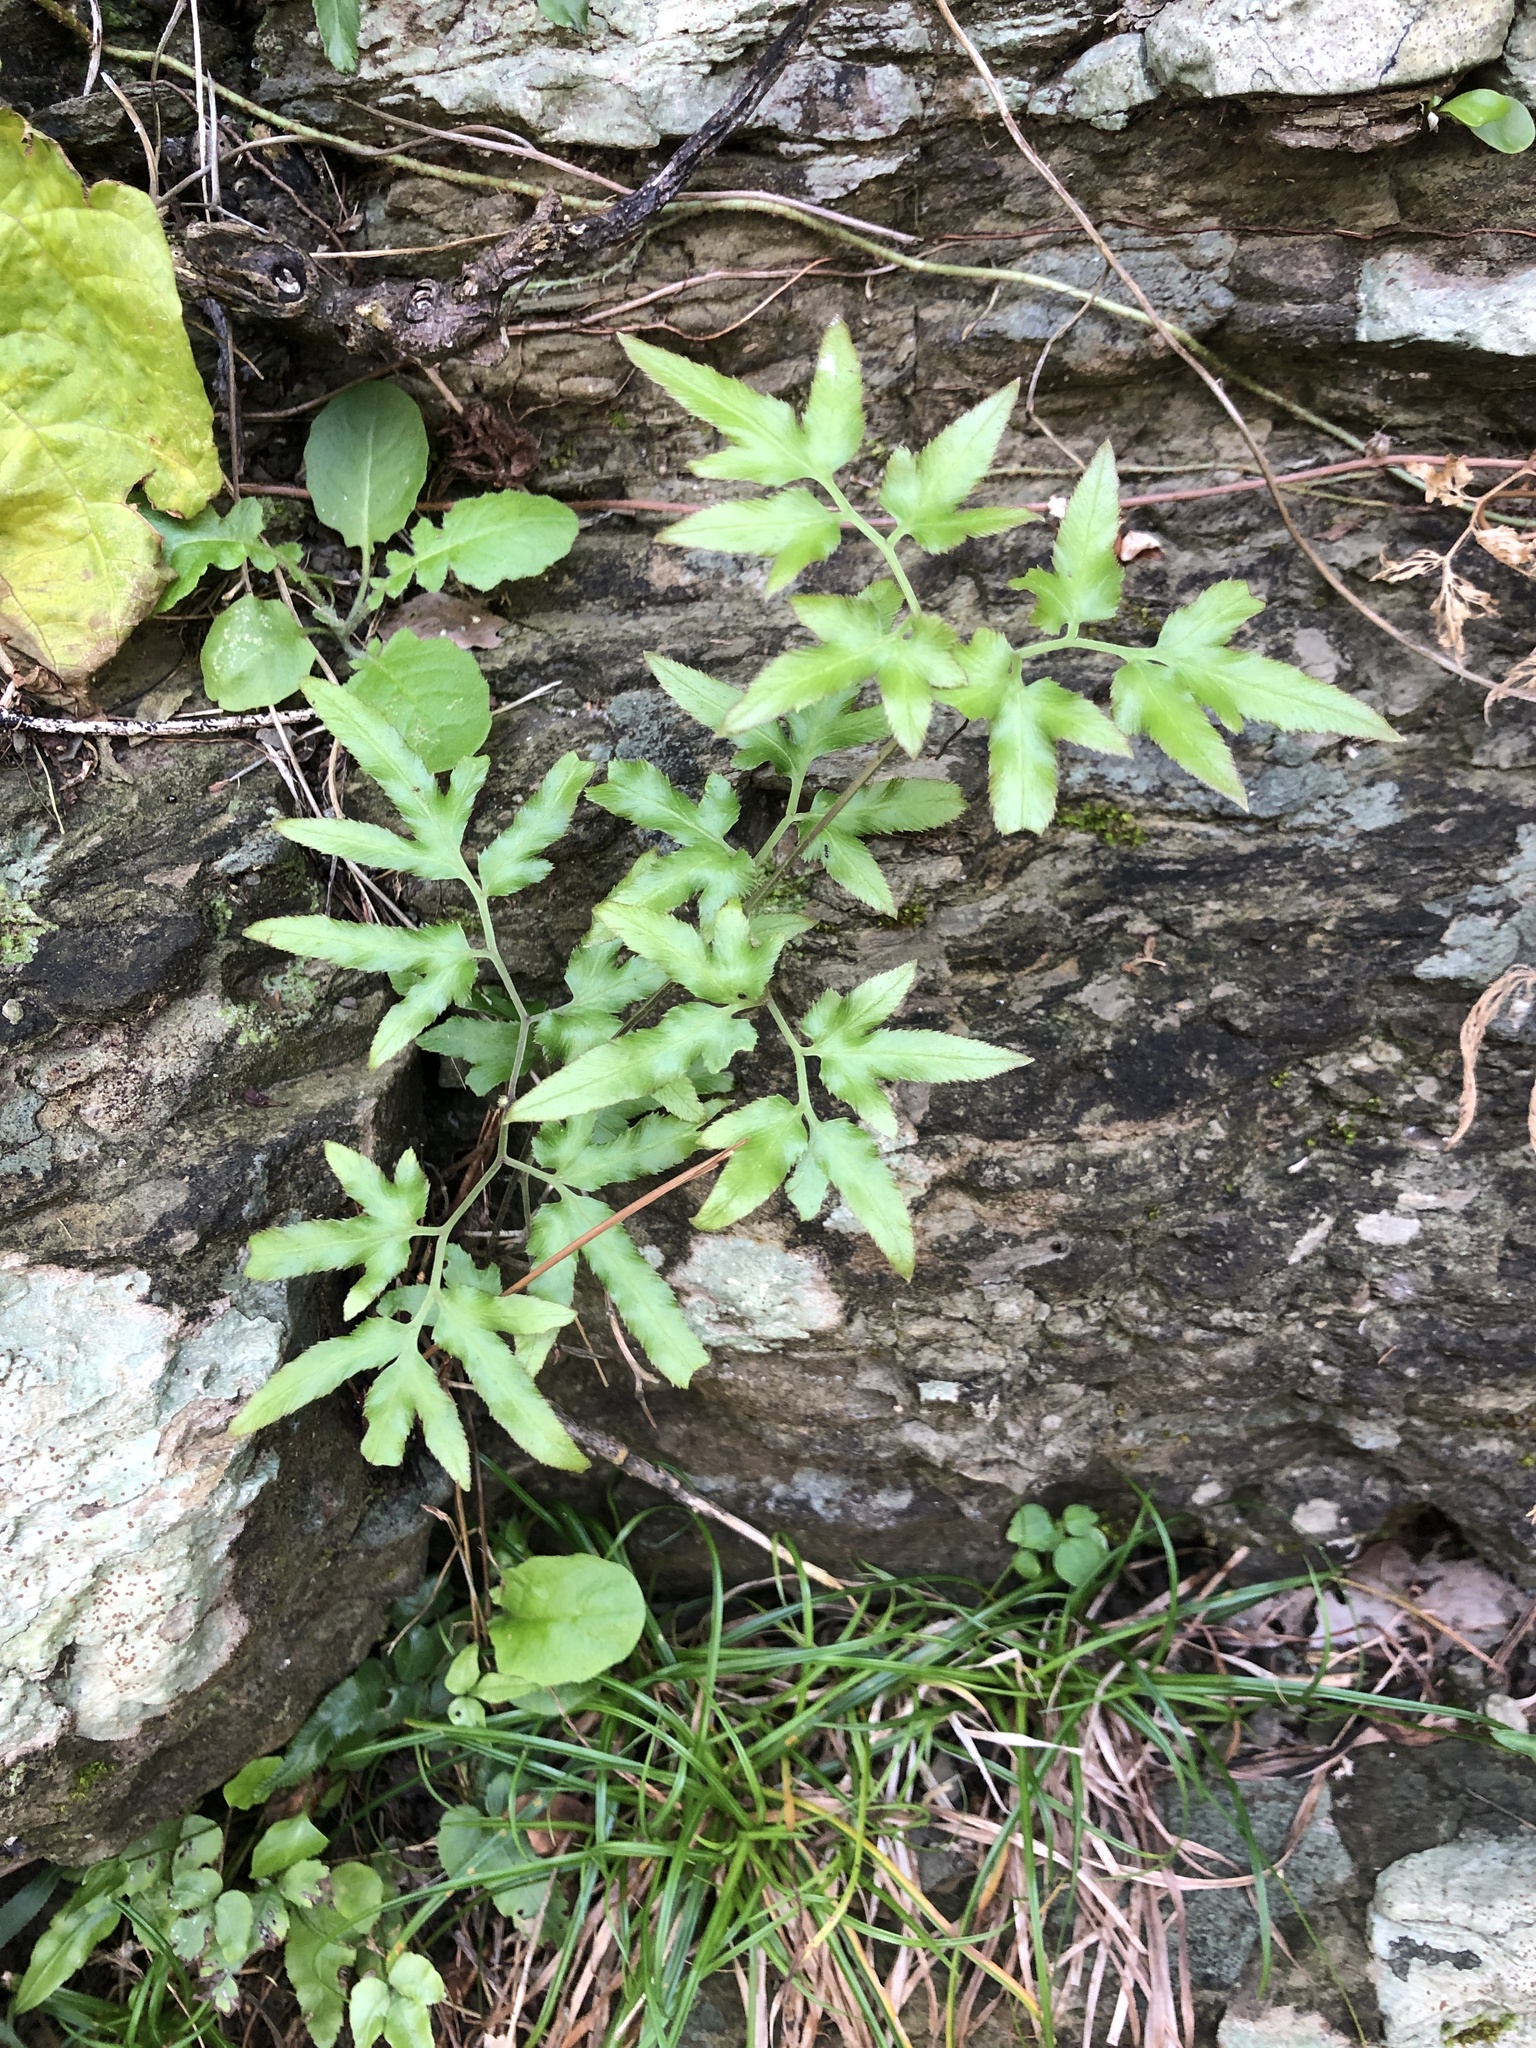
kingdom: Plantae
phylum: Tracheophyta
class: Polypodiopsida
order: Schizaeales
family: Lygodiaceae
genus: Lygodium
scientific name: Lygodium japonicum
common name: Japanese climbing fern
